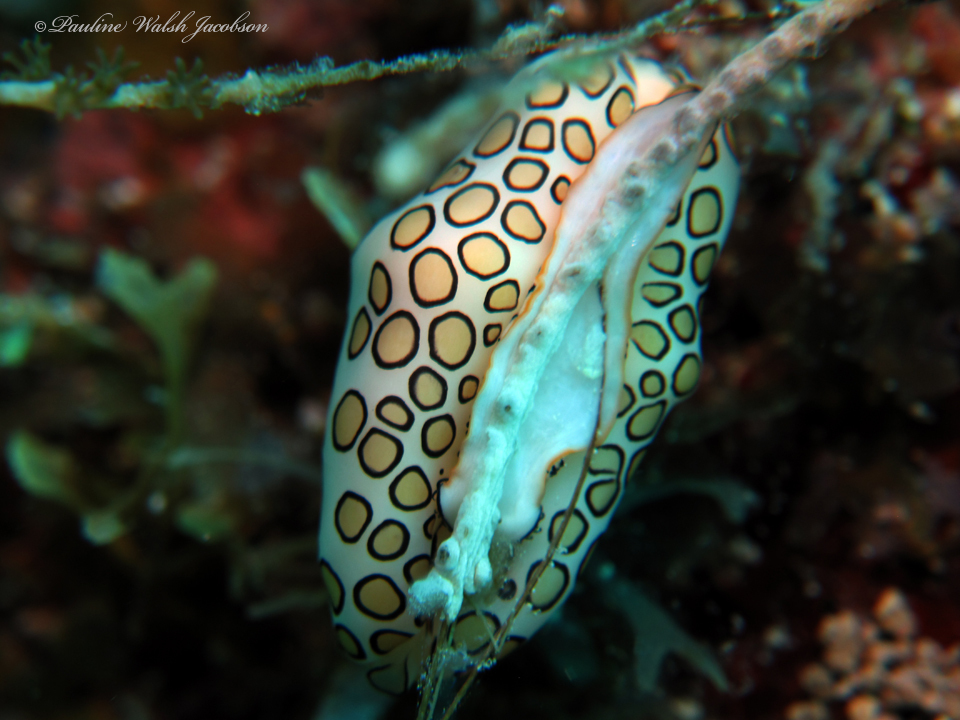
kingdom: Animalia
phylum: Mollusca
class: Gastropoda
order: Littorinimorpha
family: Ovulidae
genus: Cyphoma
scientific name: Cyphoma gibbosum
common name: Flamingo tongue
